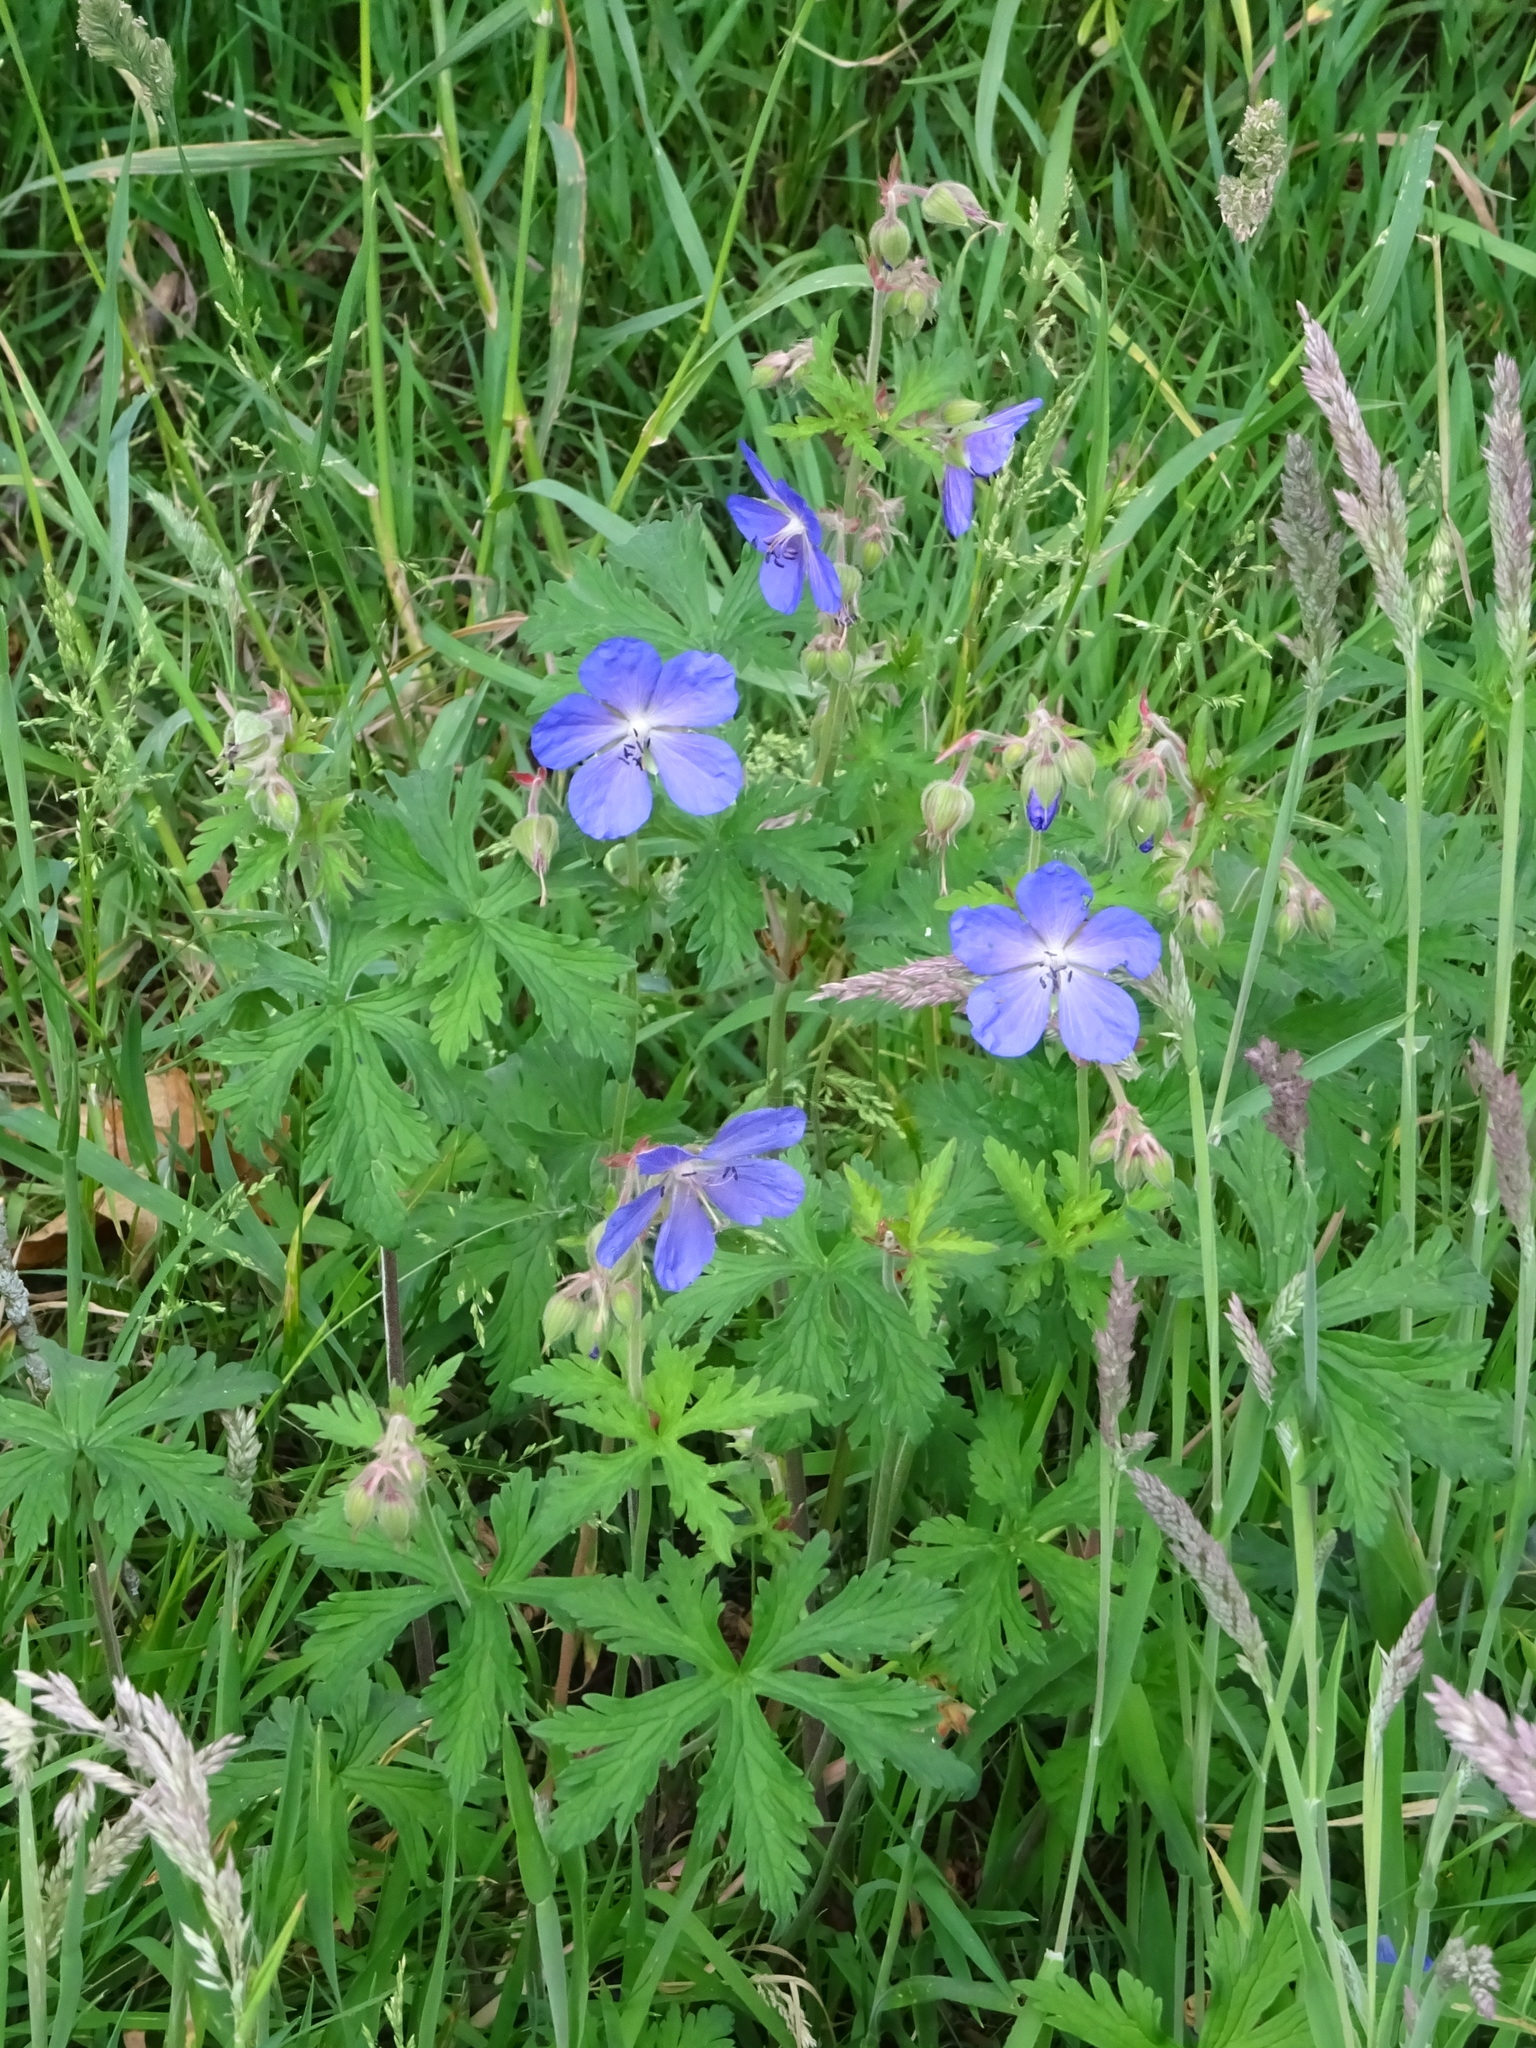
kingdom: Plantae
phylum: Tracheophyta
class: Magnoliopsida
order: Geraniales
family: Geraniaceae
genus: Geranium
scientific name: Geranium pratense
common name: Meadow crane's-bill
